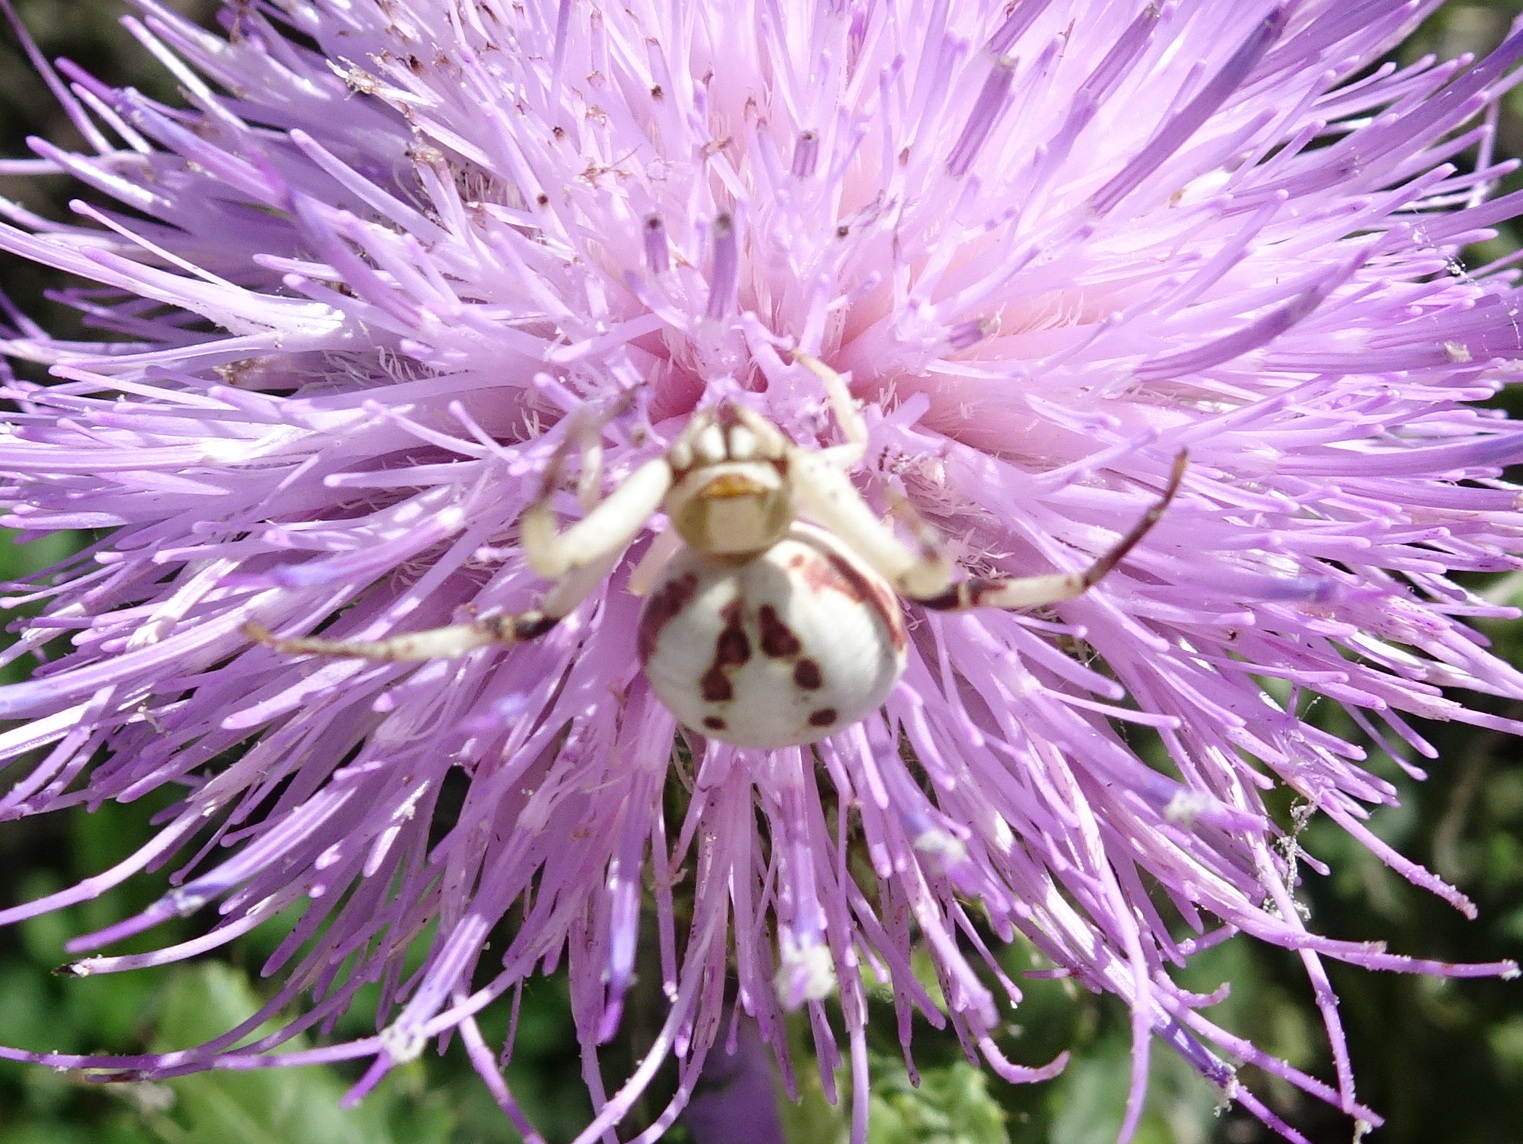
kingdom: Animalia
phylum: Arthropoda
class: Arachnida
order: Araneae
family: Thomisidae
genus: Misumenoides
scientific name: Misumenoides formosipes
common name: White-banded crab spider
